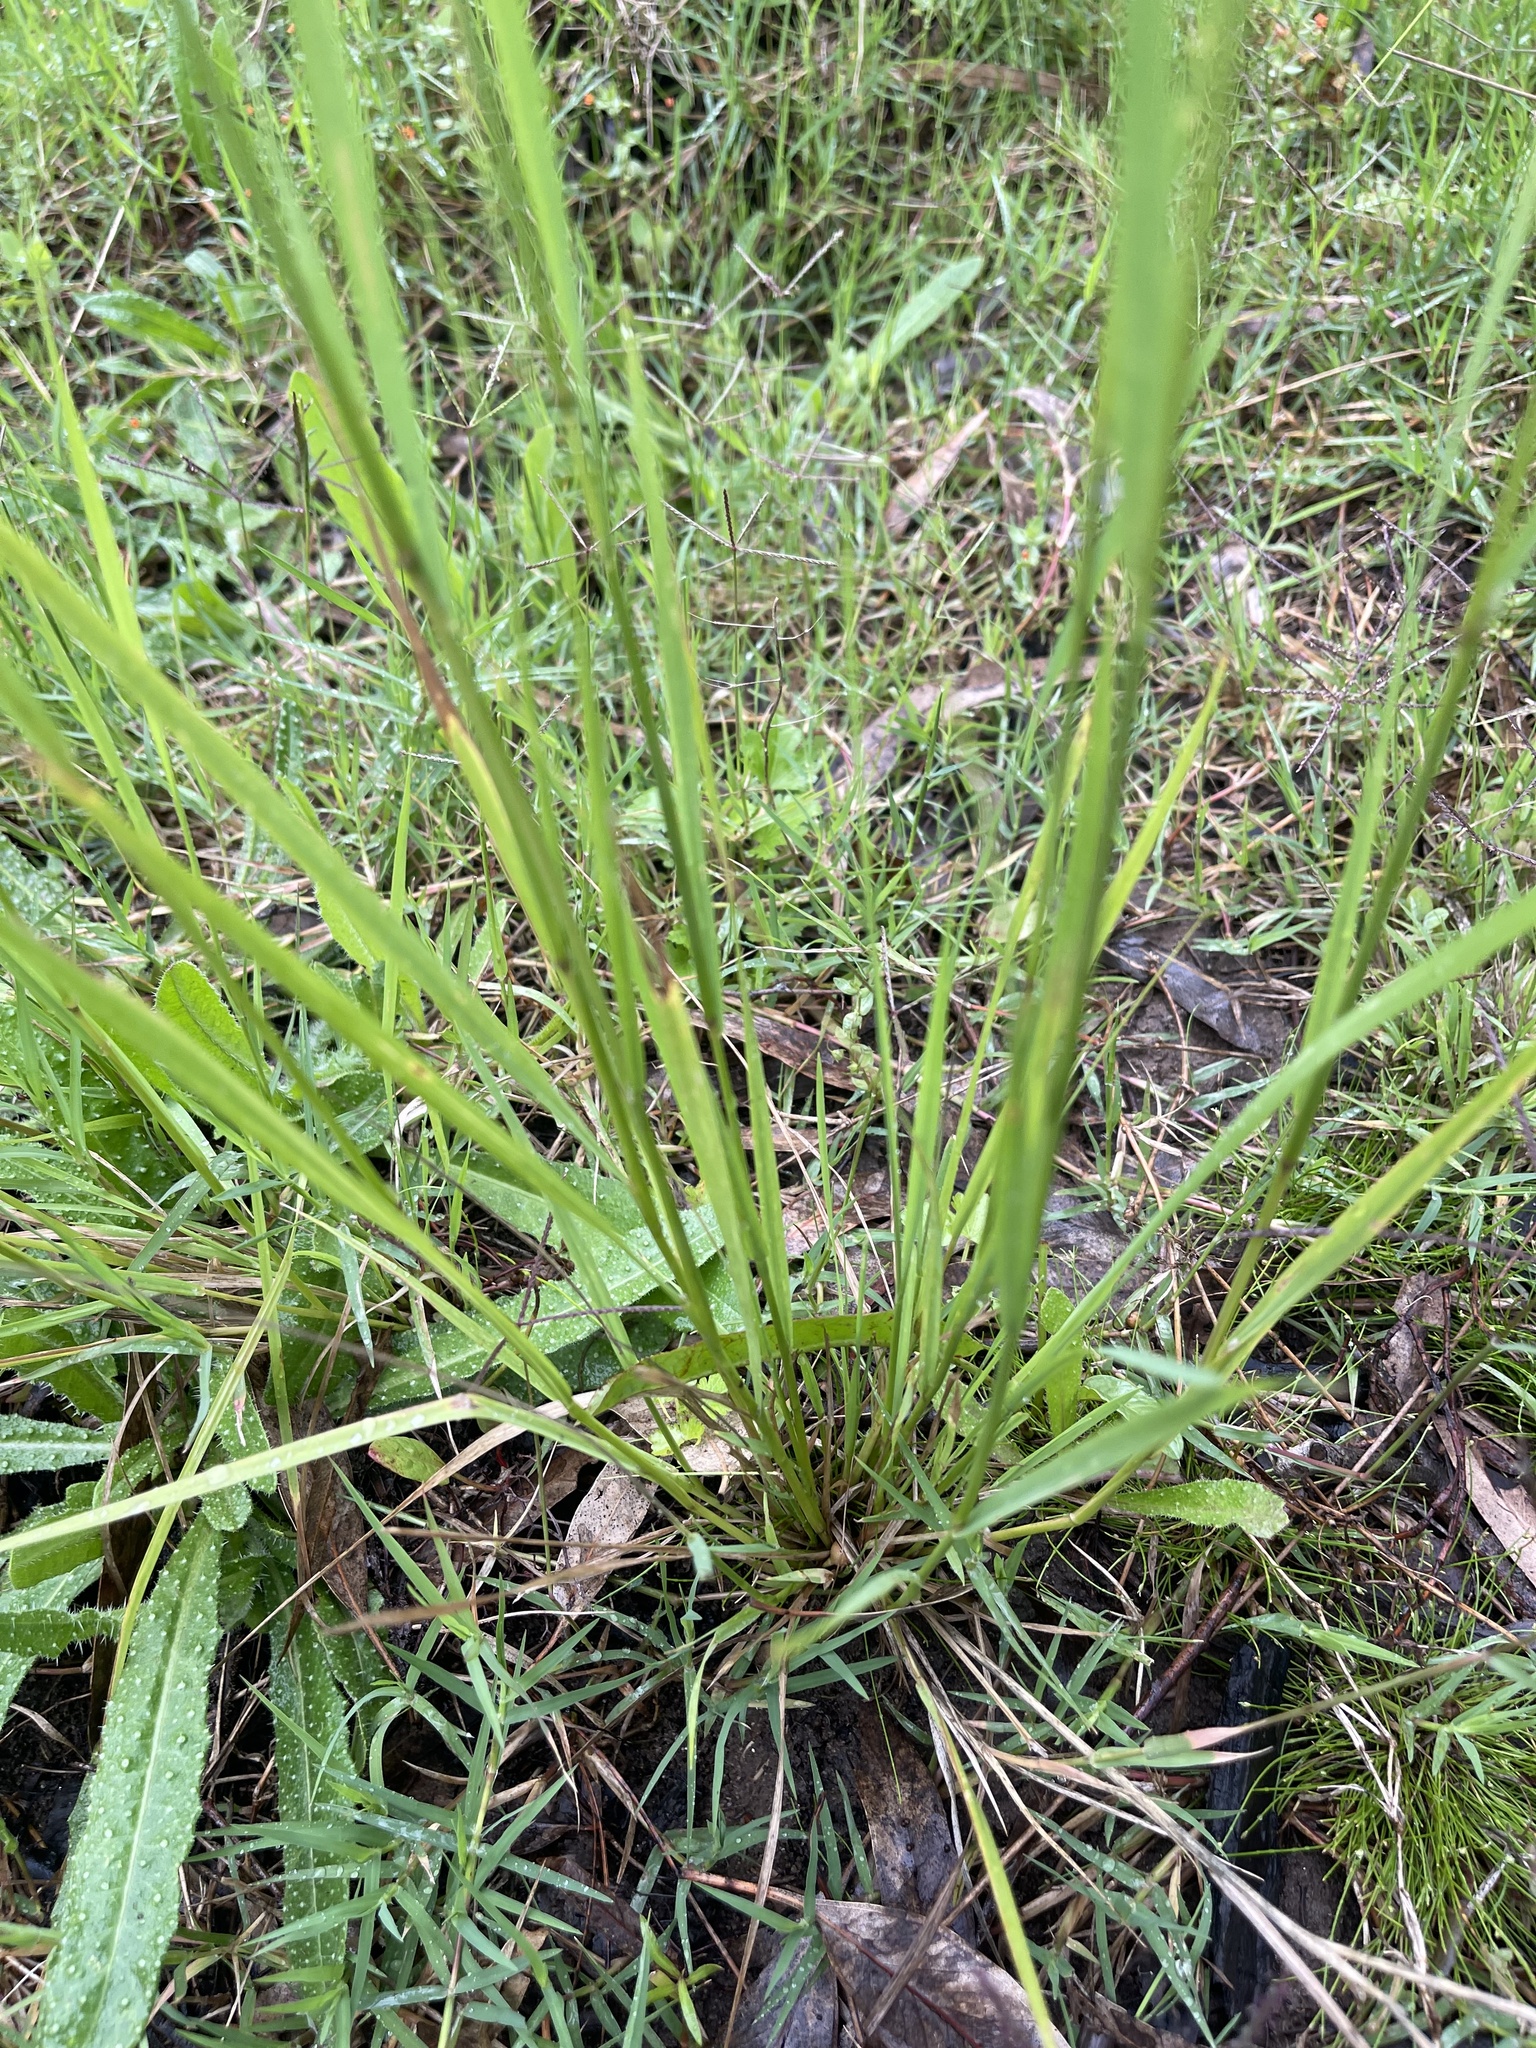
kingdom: Plantae
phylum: Tracheophyta
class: Liliopsida
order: Poales
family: Poaceae
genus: Lachnagrostis
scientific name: Lachnagrostis filiformis
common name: Bentgrass
